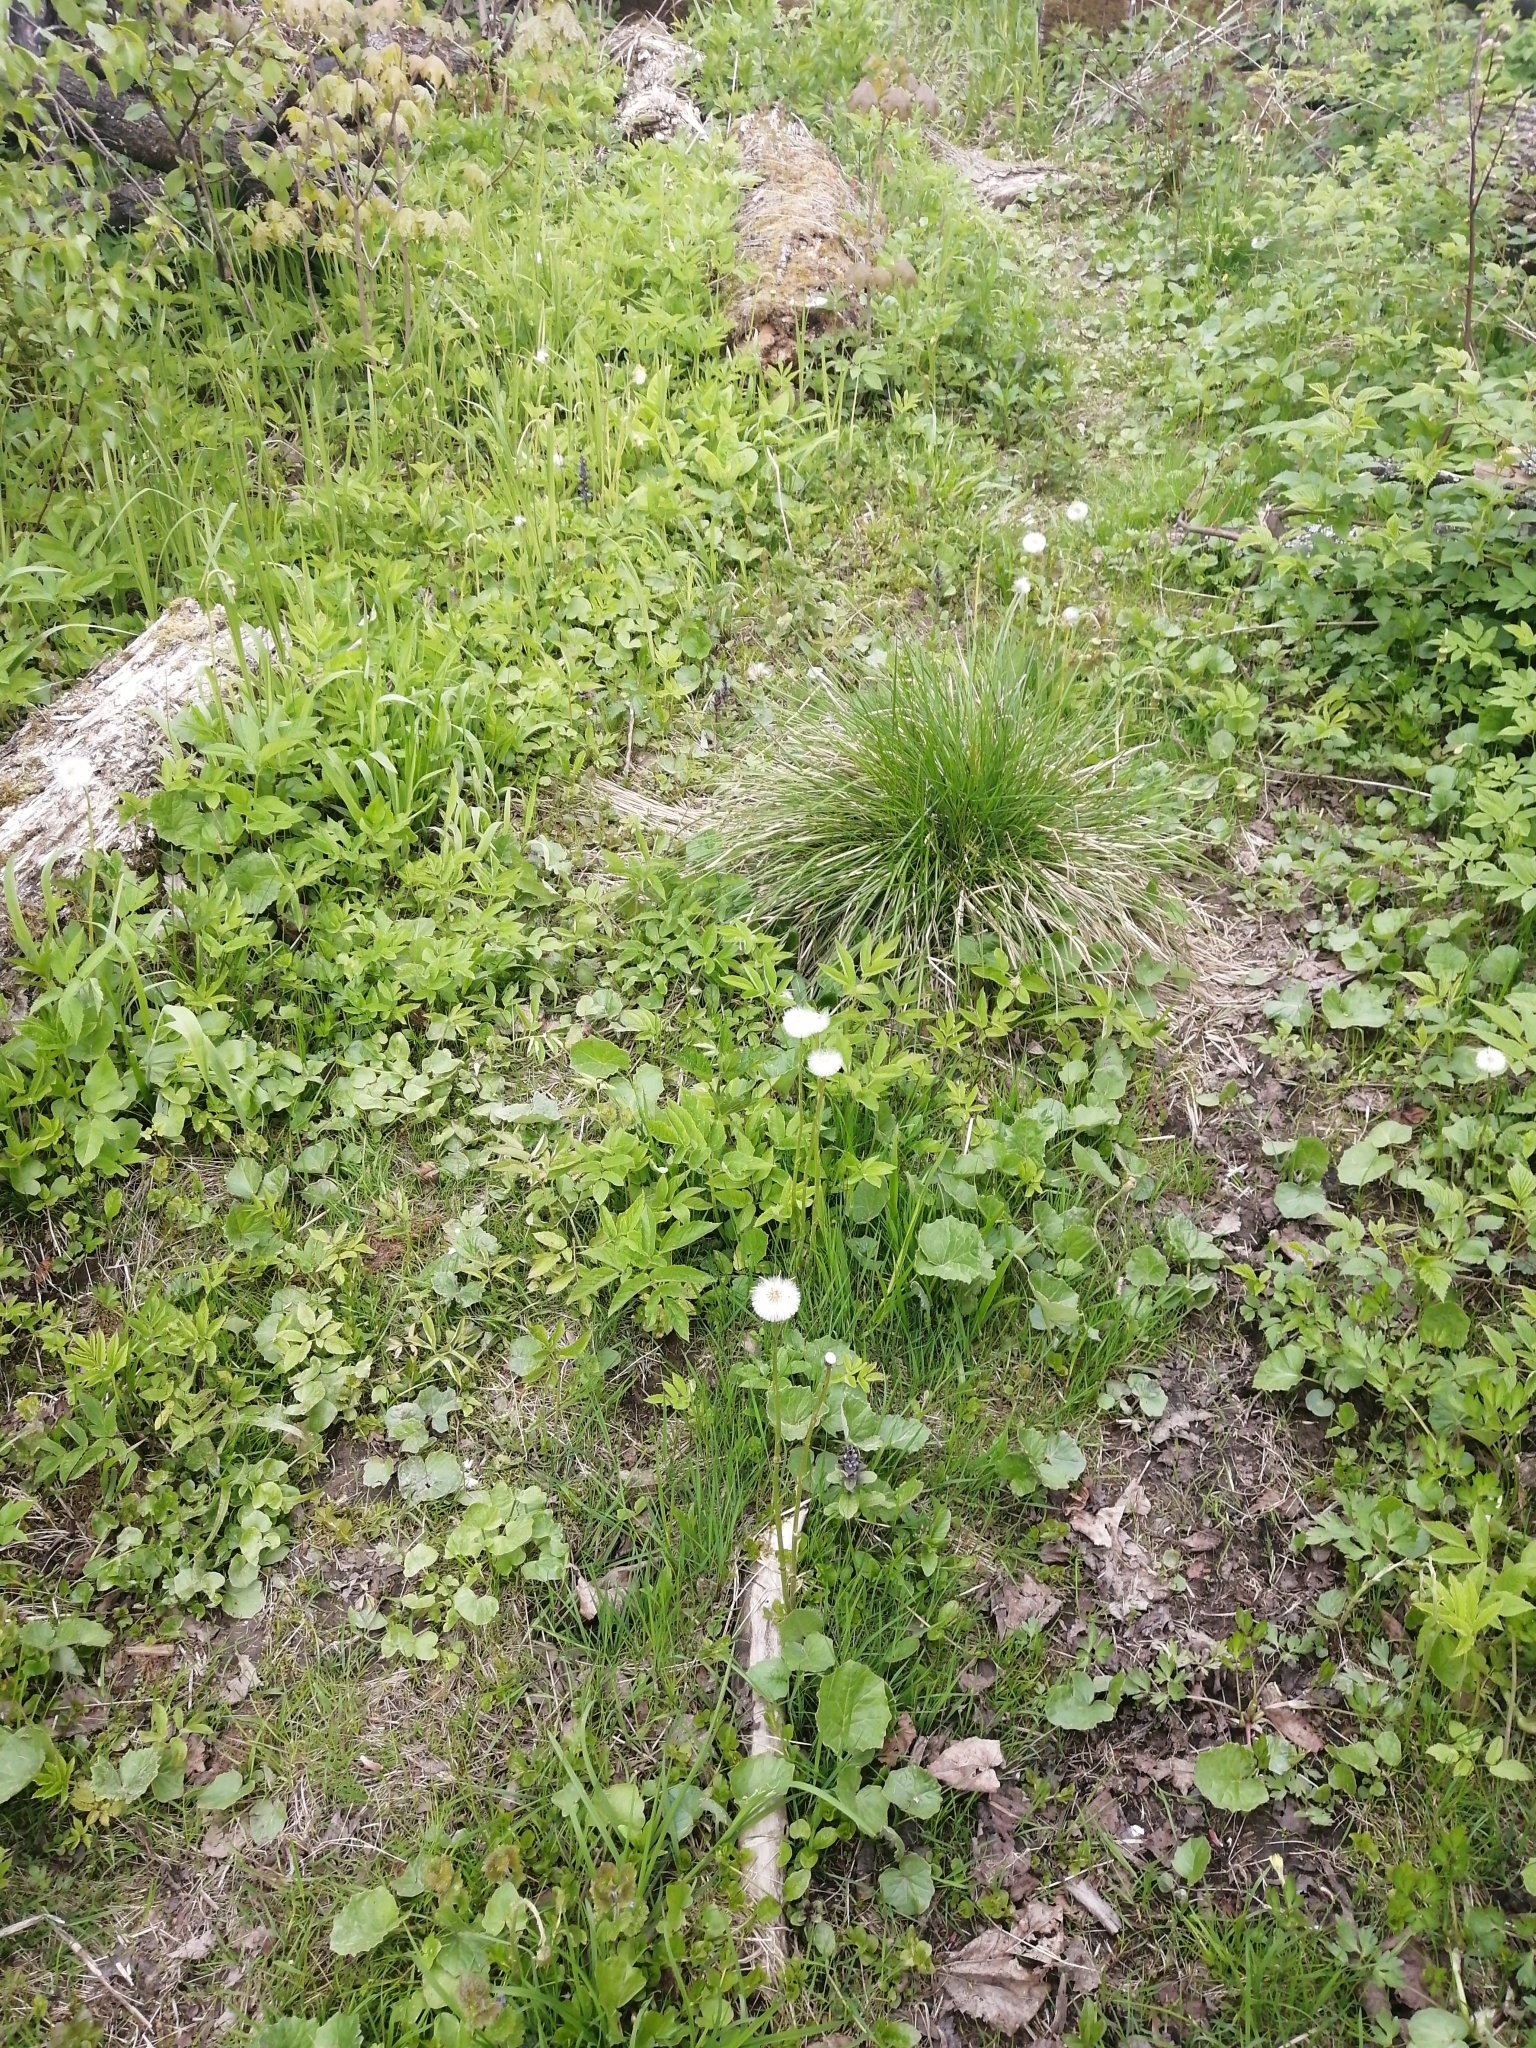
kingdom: Plantae
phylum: Tracheophyta
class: Magnoliopsida
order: Asterales
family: Asteraceae
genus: Tussilago
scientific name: Tussilago farfara
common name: Coltsfoot
